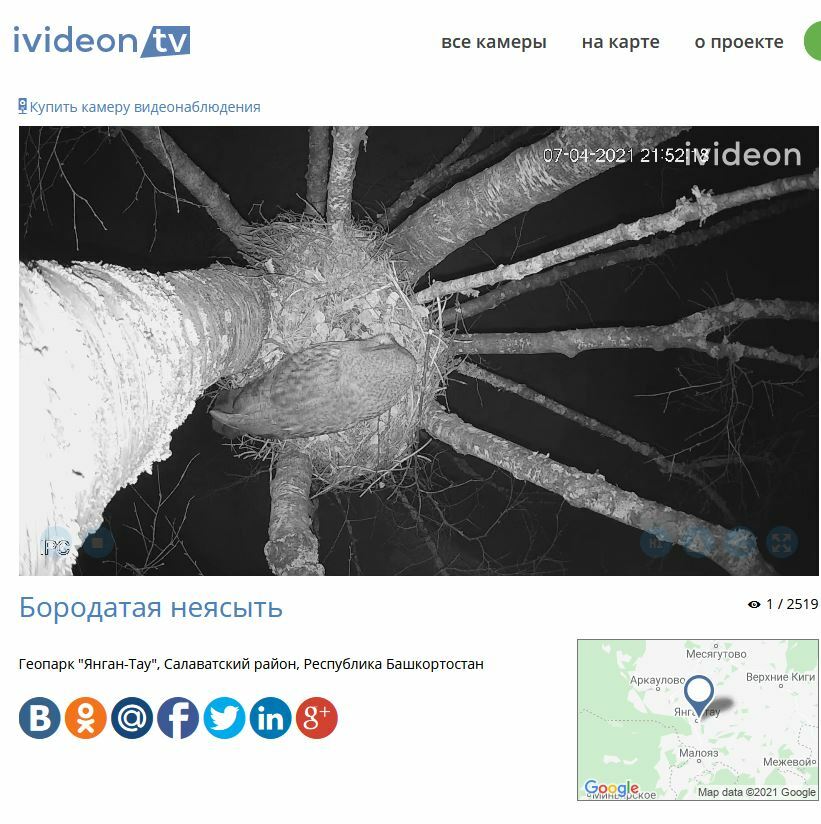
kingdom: Animalia
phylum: Chordata
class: Aves
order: Strigiformes
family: Strigidae
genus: Strix
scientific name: Strix nebulosa
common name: Great grey owl
